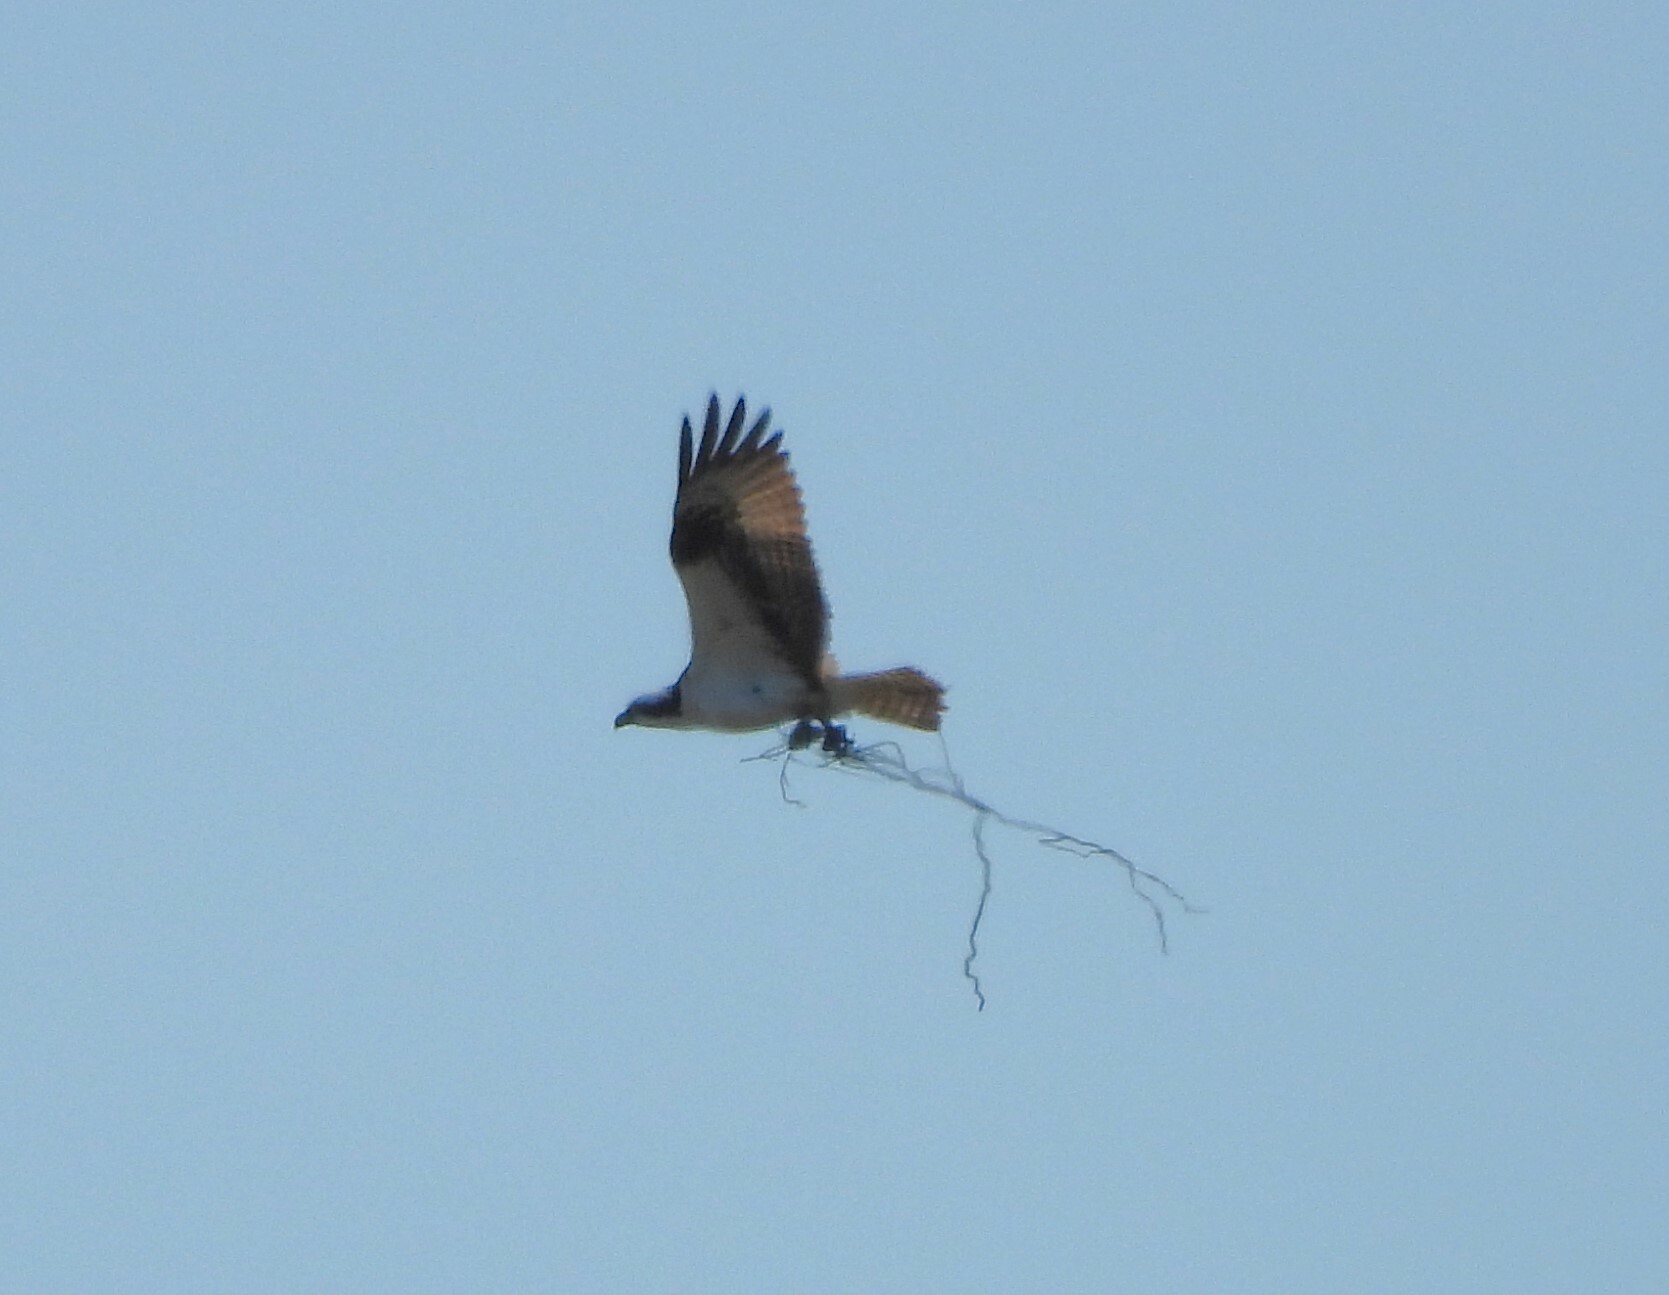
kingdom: Animalia
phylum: Chordata
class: Aves
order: Accipitriformes
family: Pandionidae
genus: Pandion
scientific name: Pandion haliaetus
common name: Osprey
